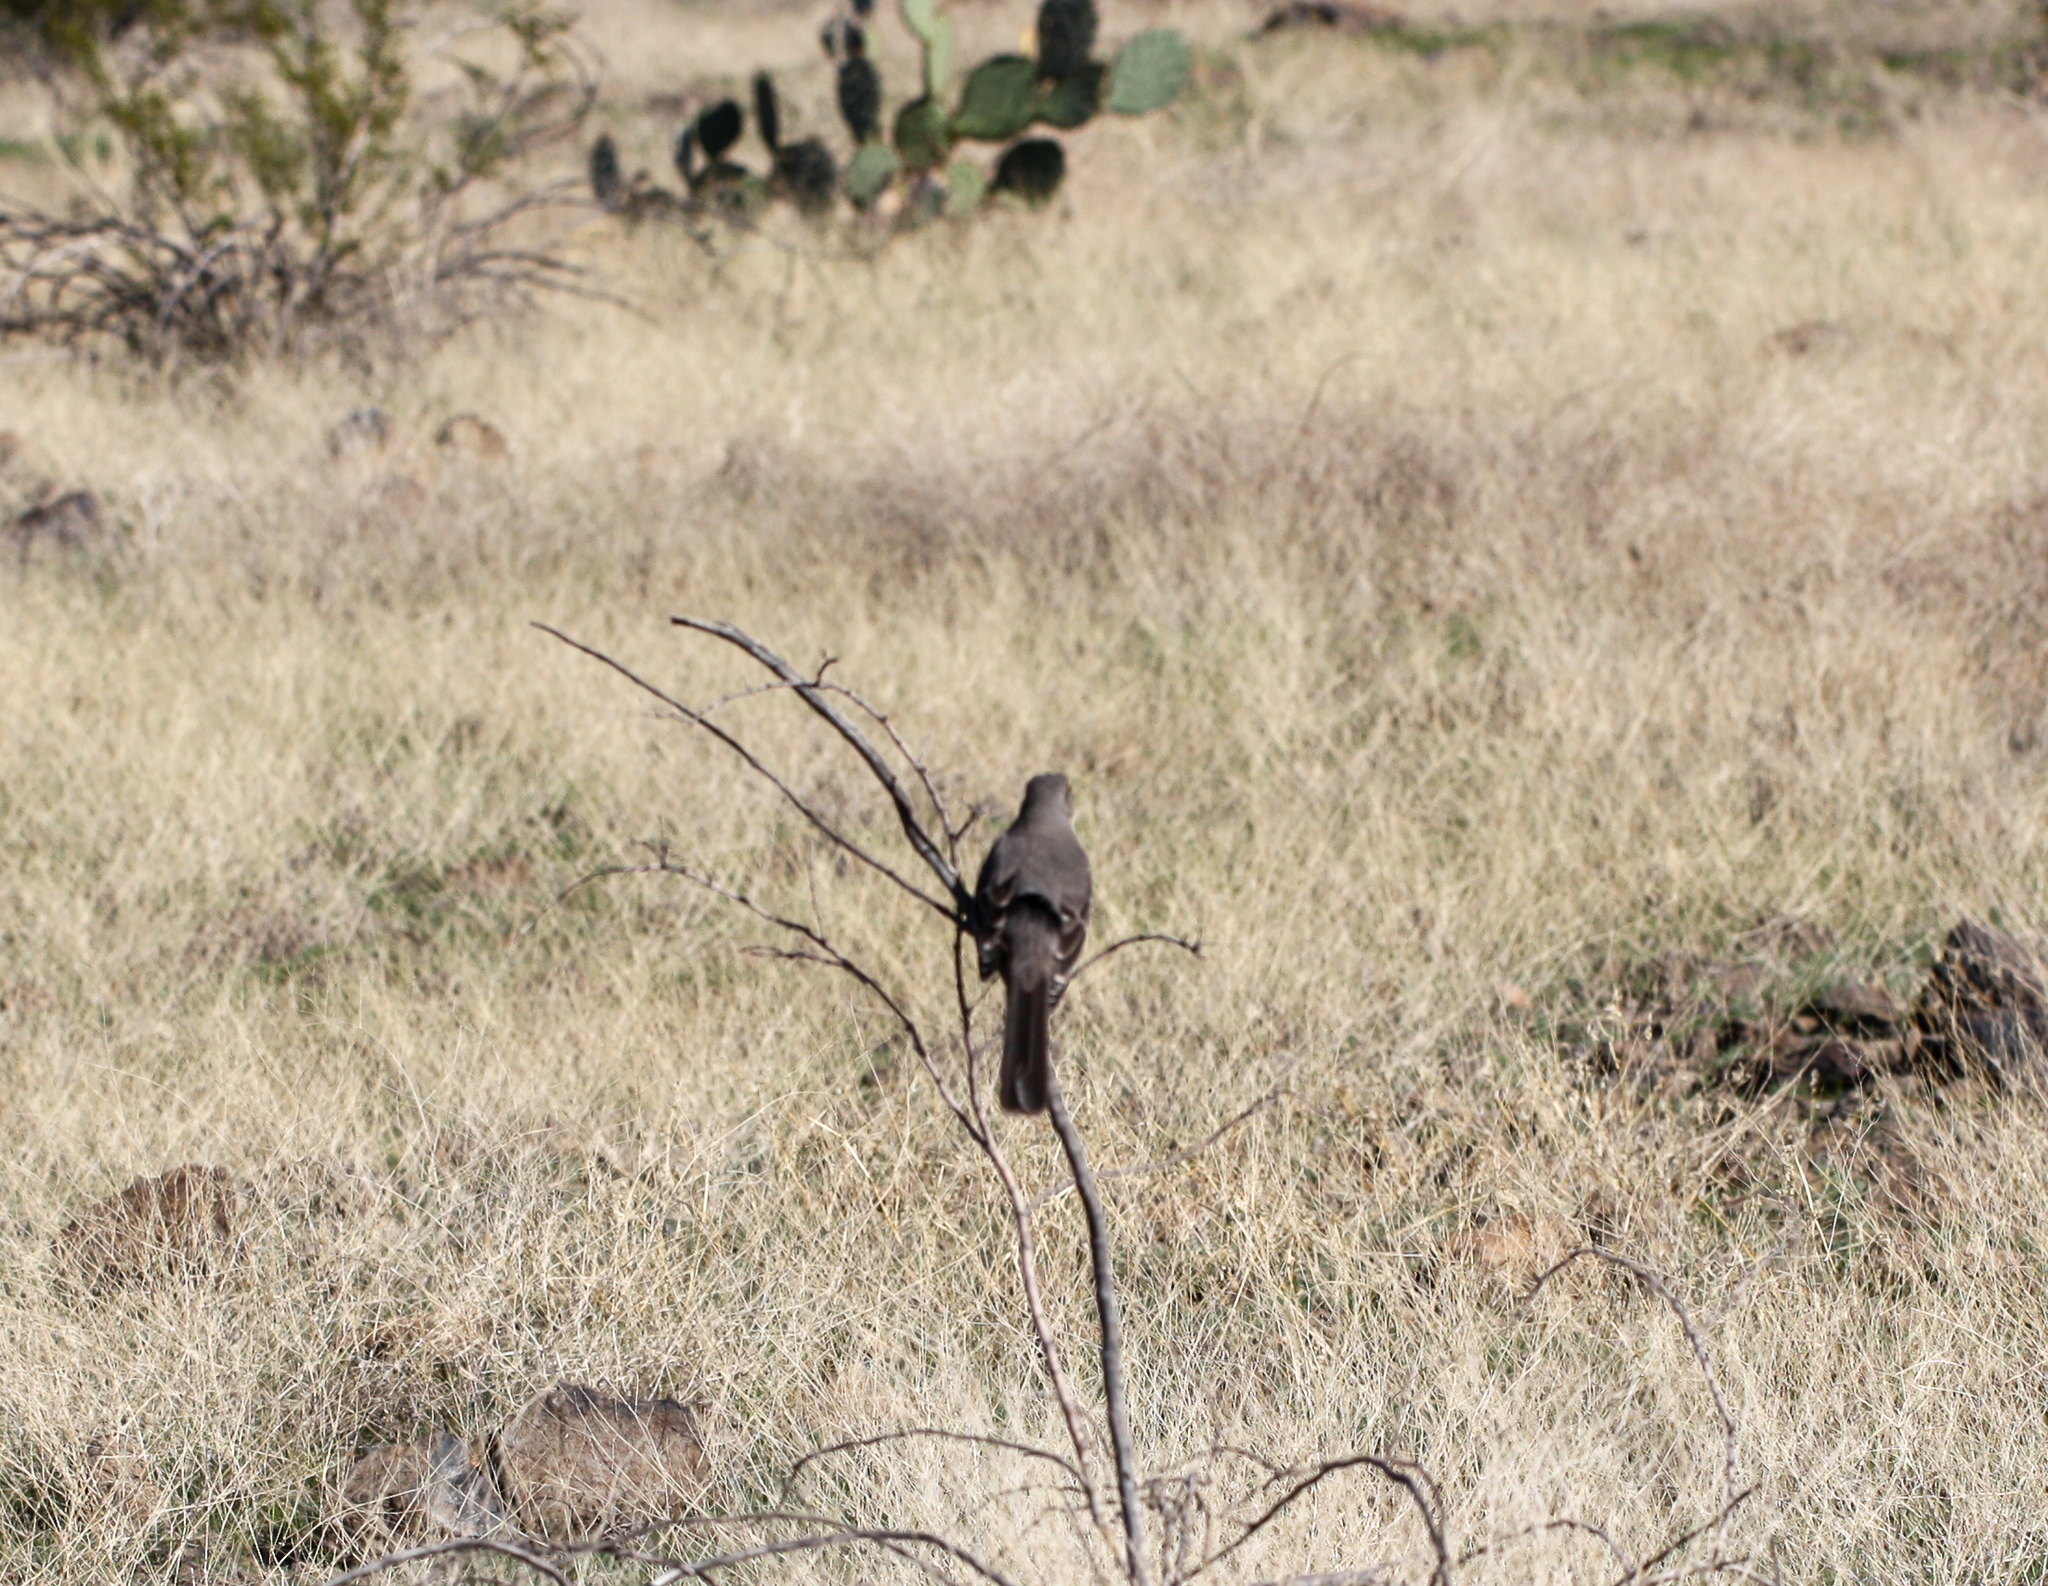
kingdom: Animalia
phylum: Chordata
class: Aves
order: Passeriformes
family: Mimidae
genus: Mimus
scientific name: Mimus polyglottos
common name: Northern mockingbird
